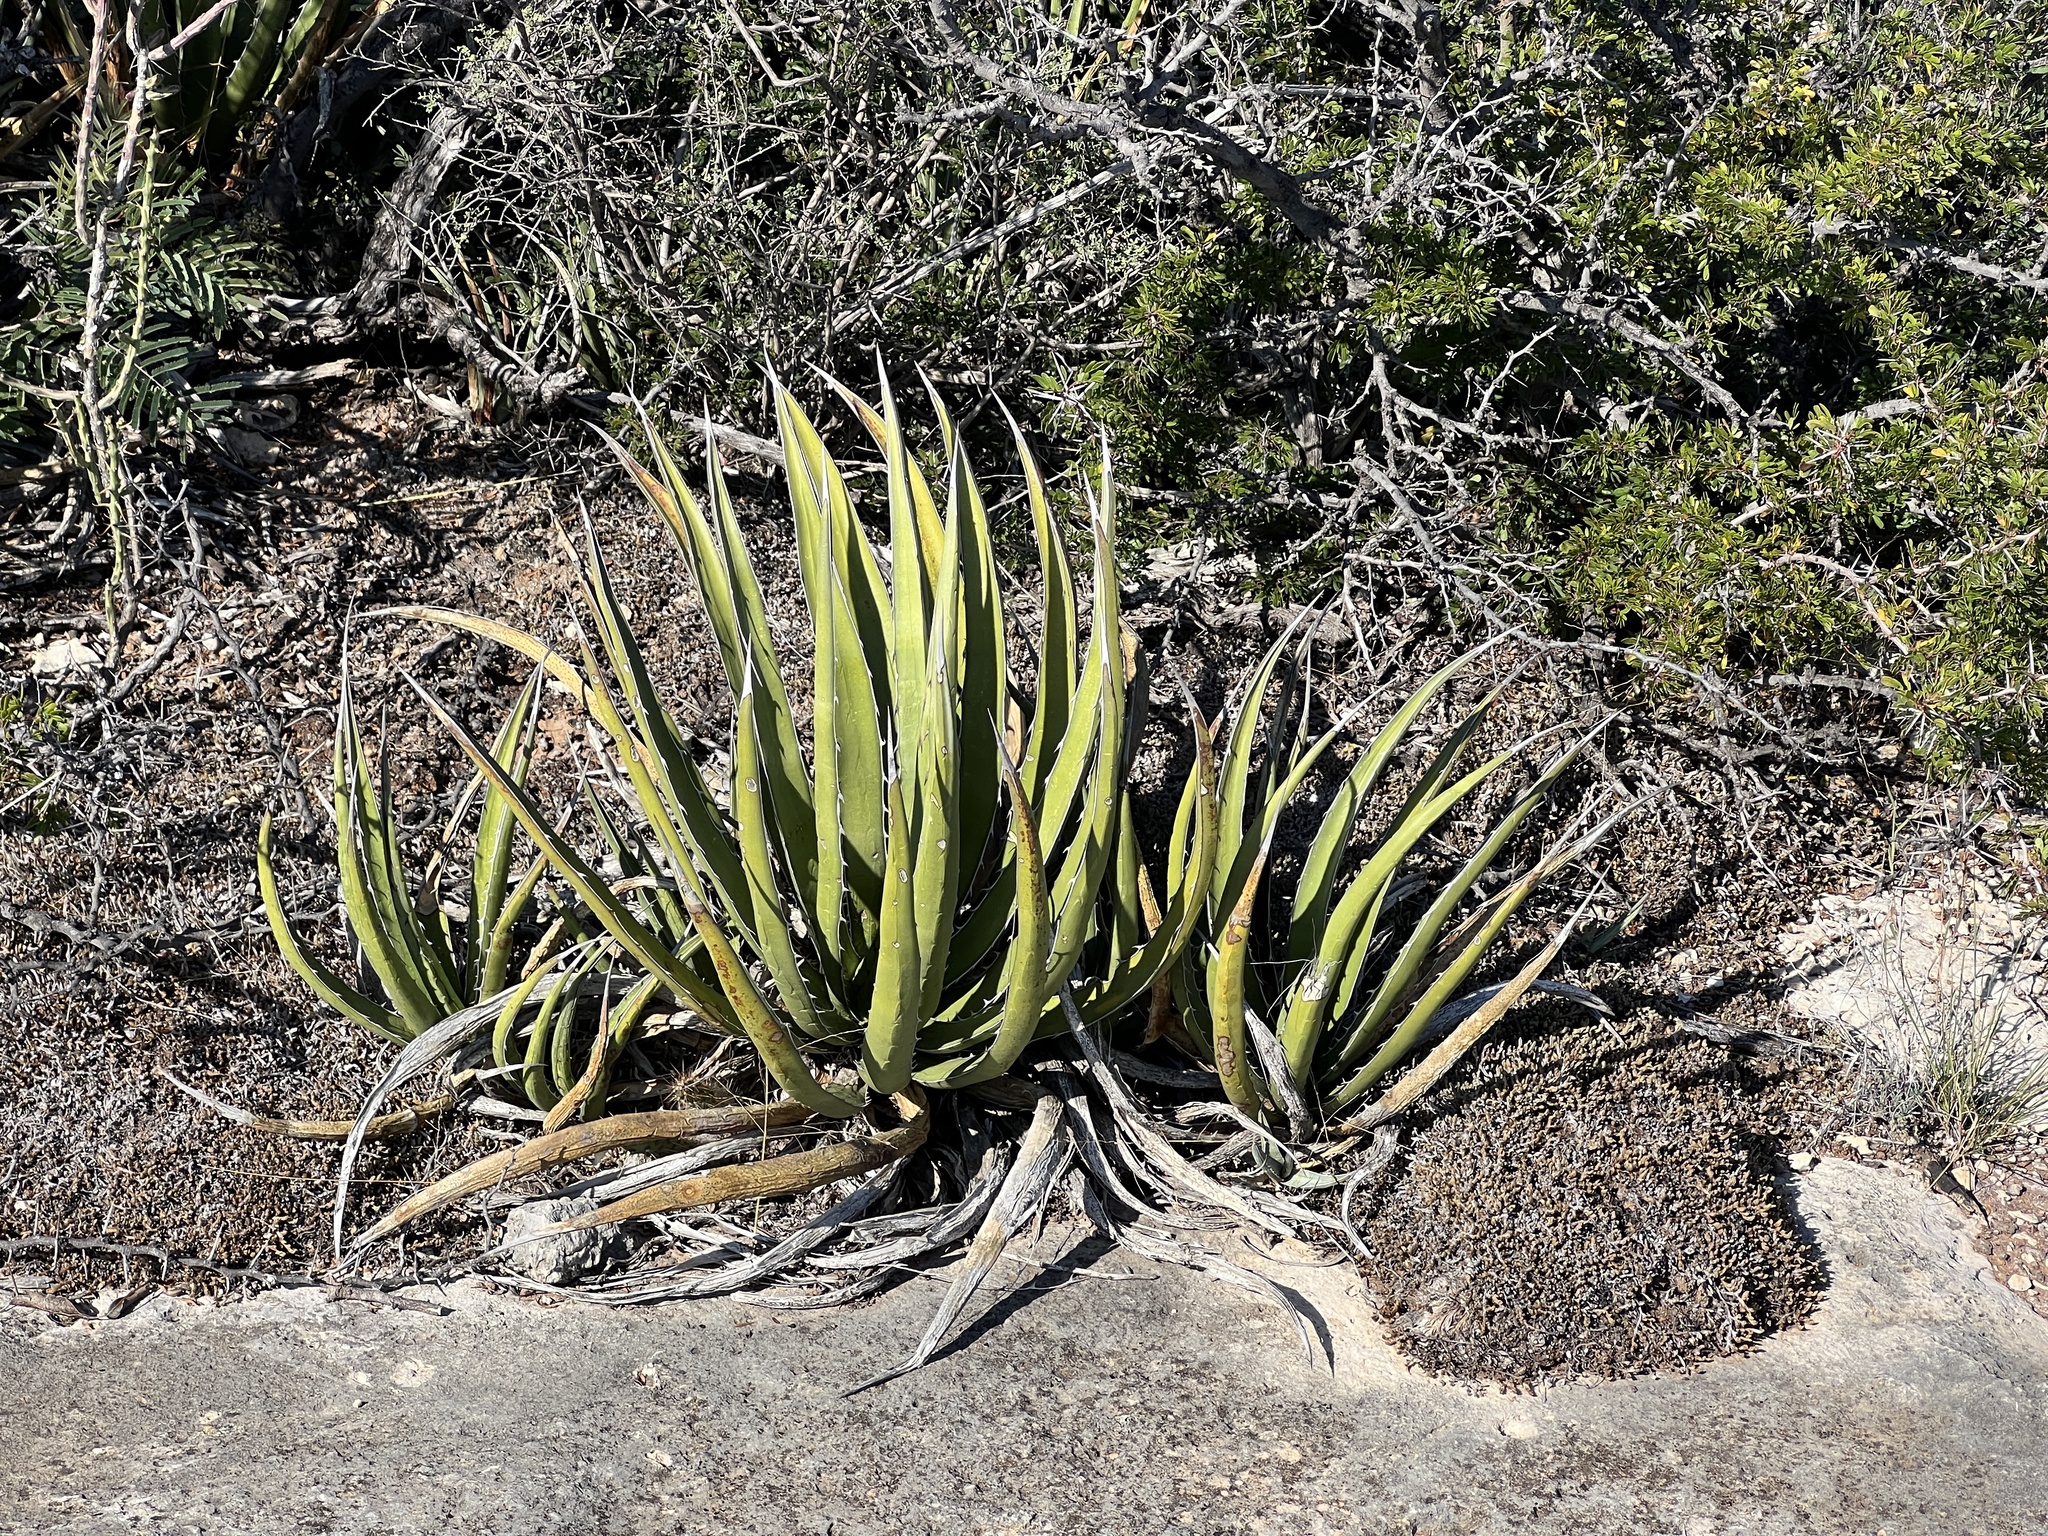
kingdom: Plantae
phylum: Tracheophyta
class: Liliopsida
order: Asparagales
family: Asparagaceae
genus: Agave
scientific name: Agave lechuguilla
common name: Lecheguilla agave
